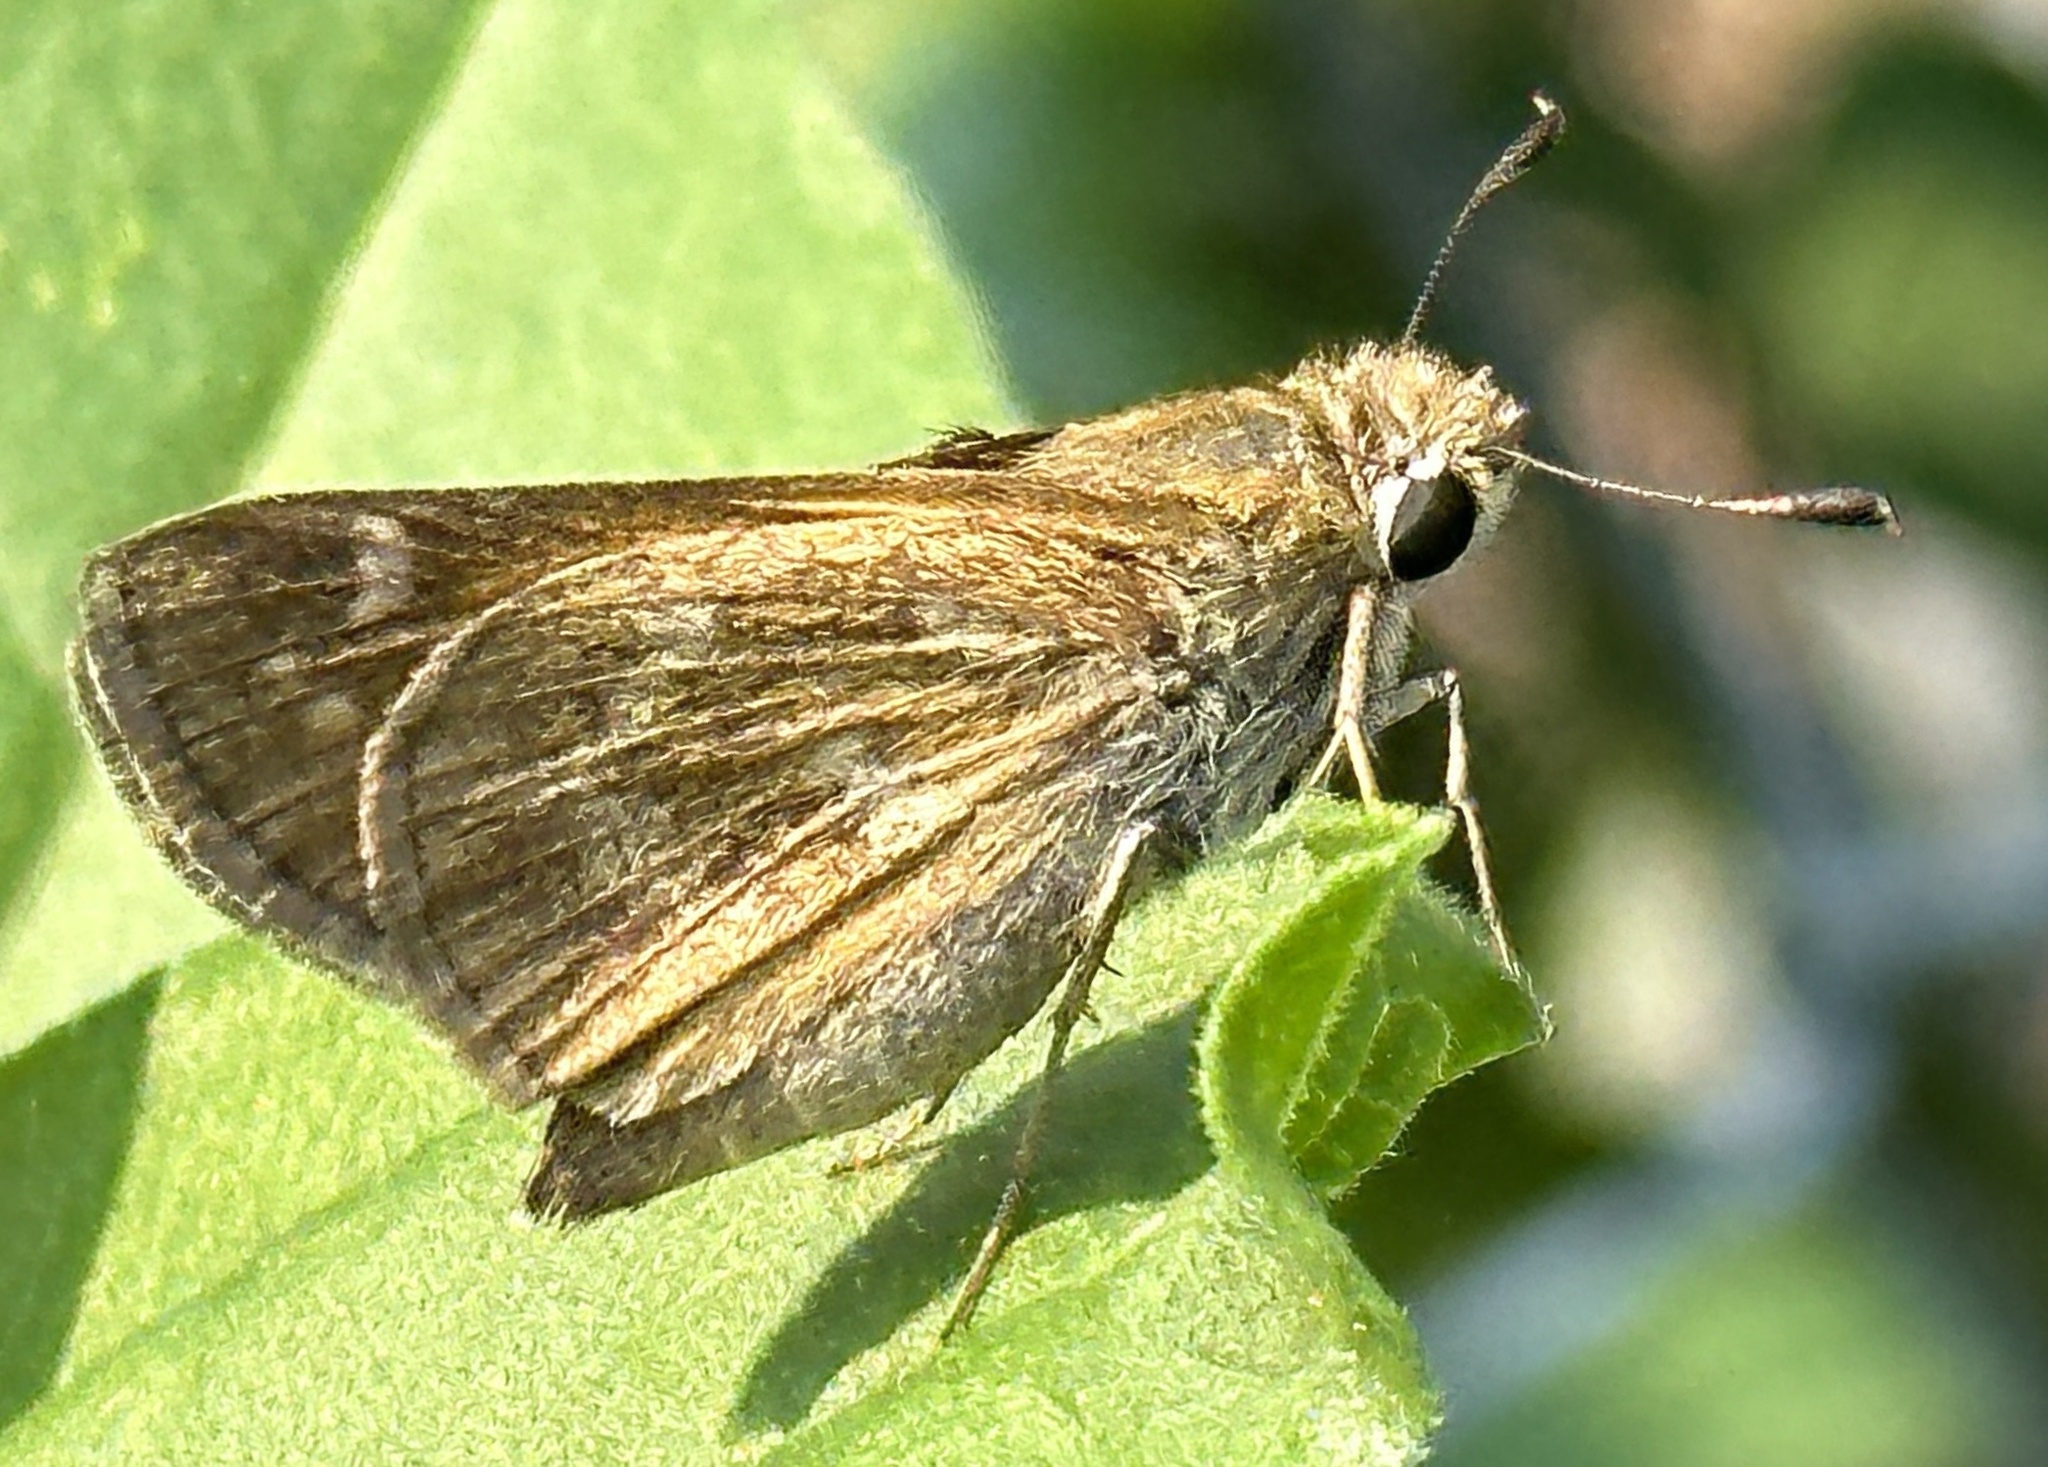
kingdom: Animalia
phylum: Arthropoda
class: Insecta
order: Lepidoptera
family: Hesperiidae
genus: Atalopedes
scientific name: Atalopedes
